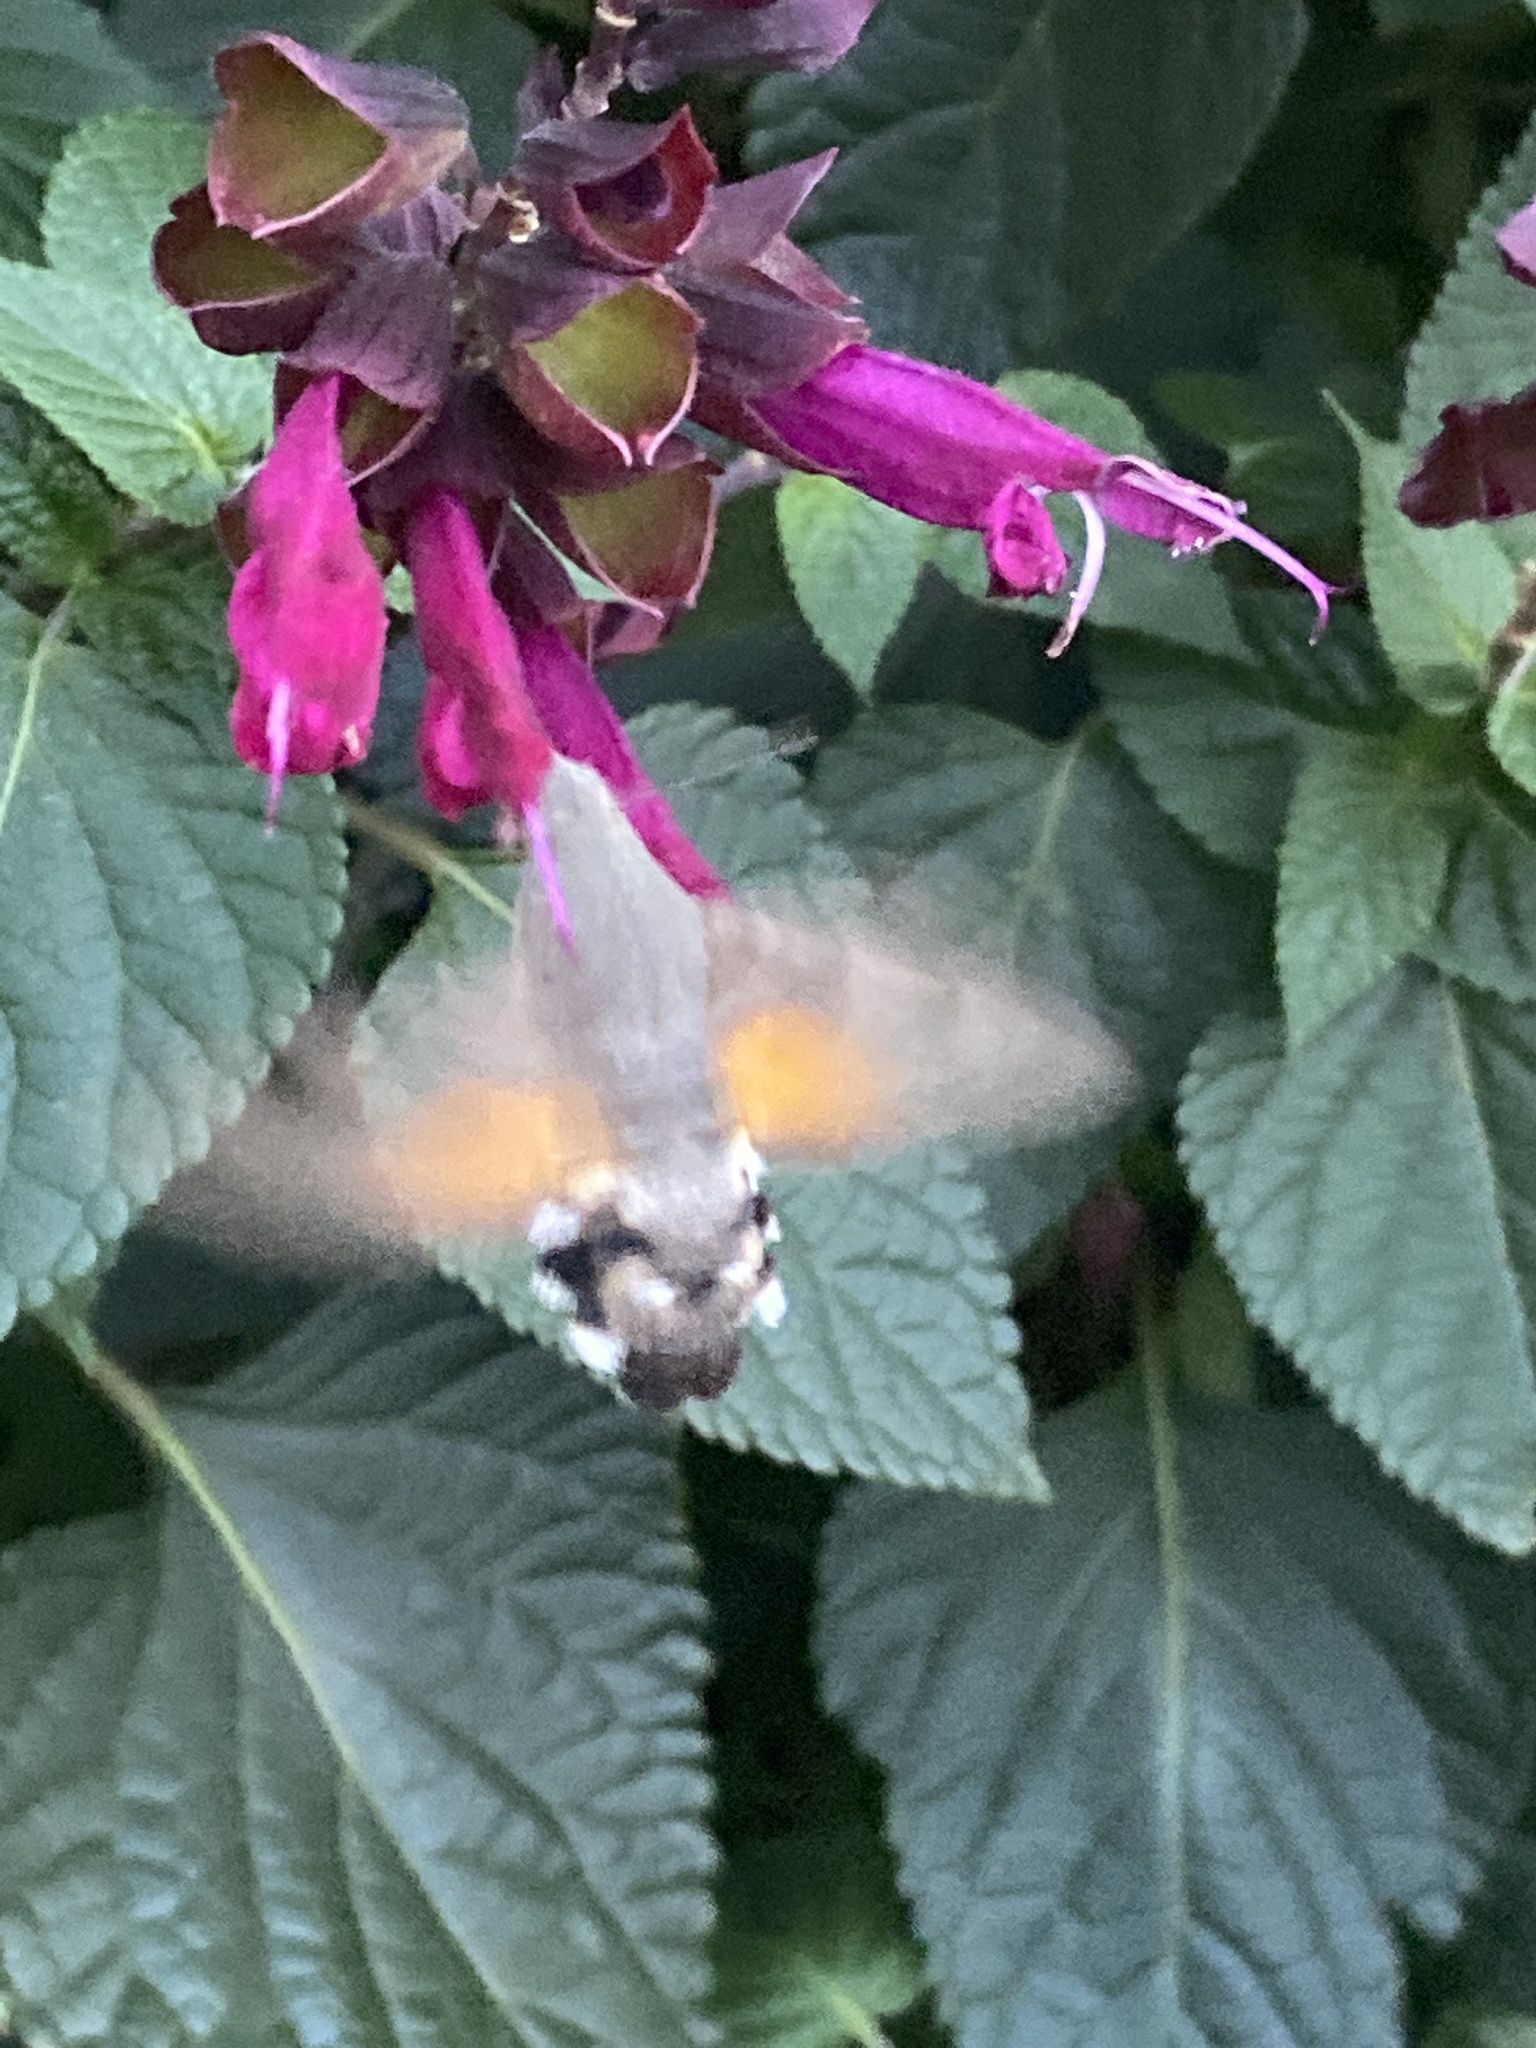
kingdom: Animalia
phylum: Arthropoda
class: Insecta
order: Lepidoptera
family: Sphingidae
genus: Macroglossum
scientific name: Macroglossum stellatarum
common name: Humming-bird hawk-moth
